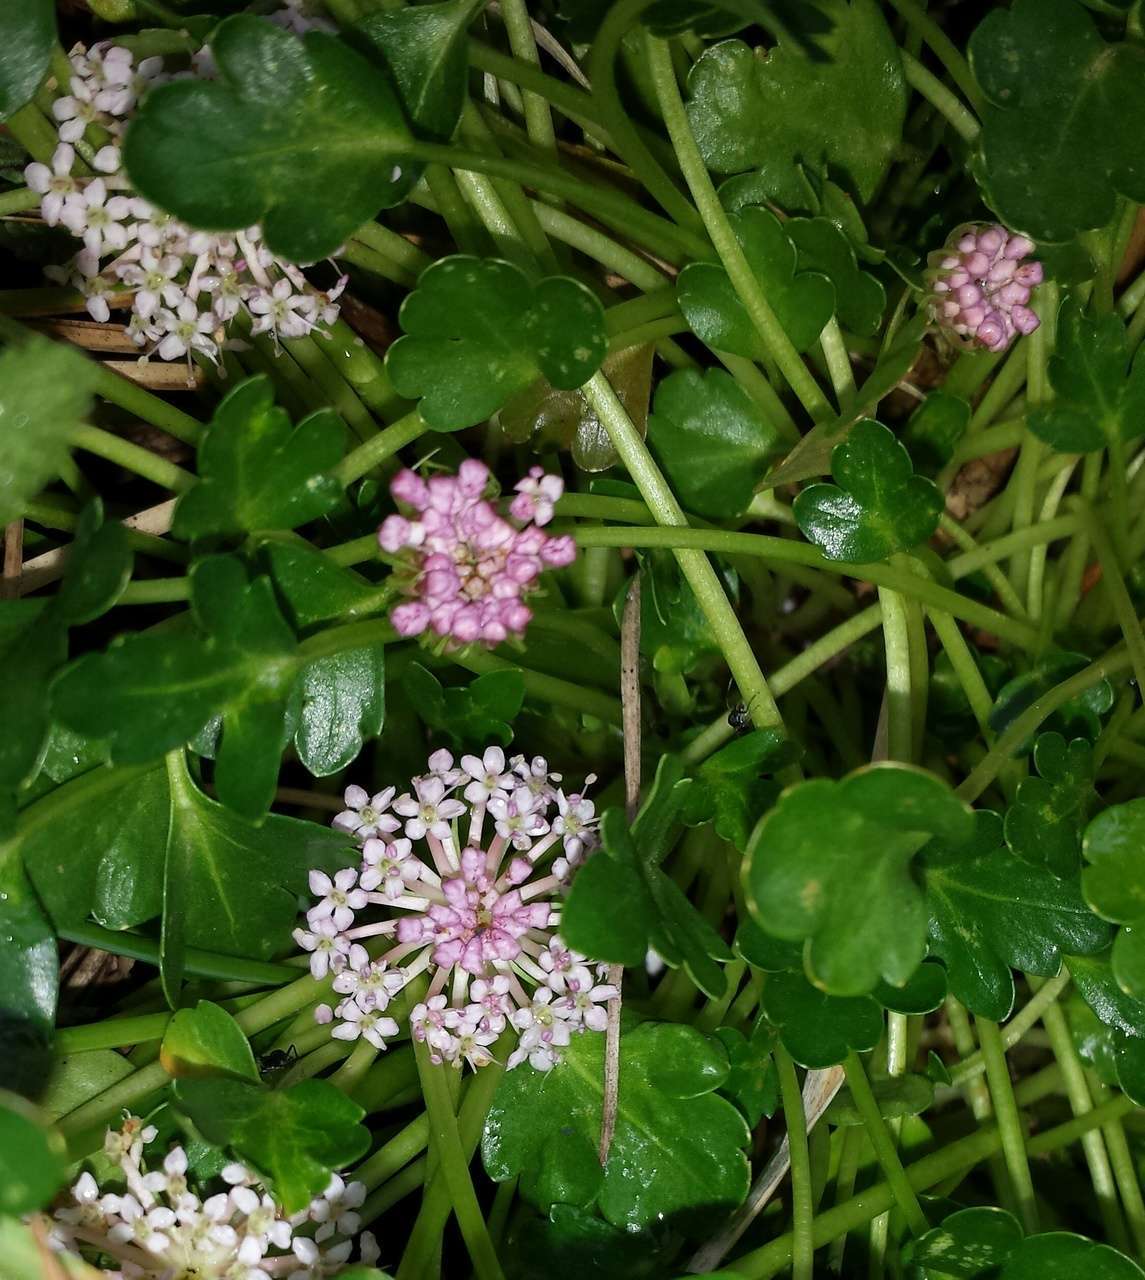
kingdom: Plantae
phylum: Tracheophyta
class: Magnoliopsida
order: Apiales
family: Araliaceae
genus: Trachymene
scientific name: Trachymene humilis
